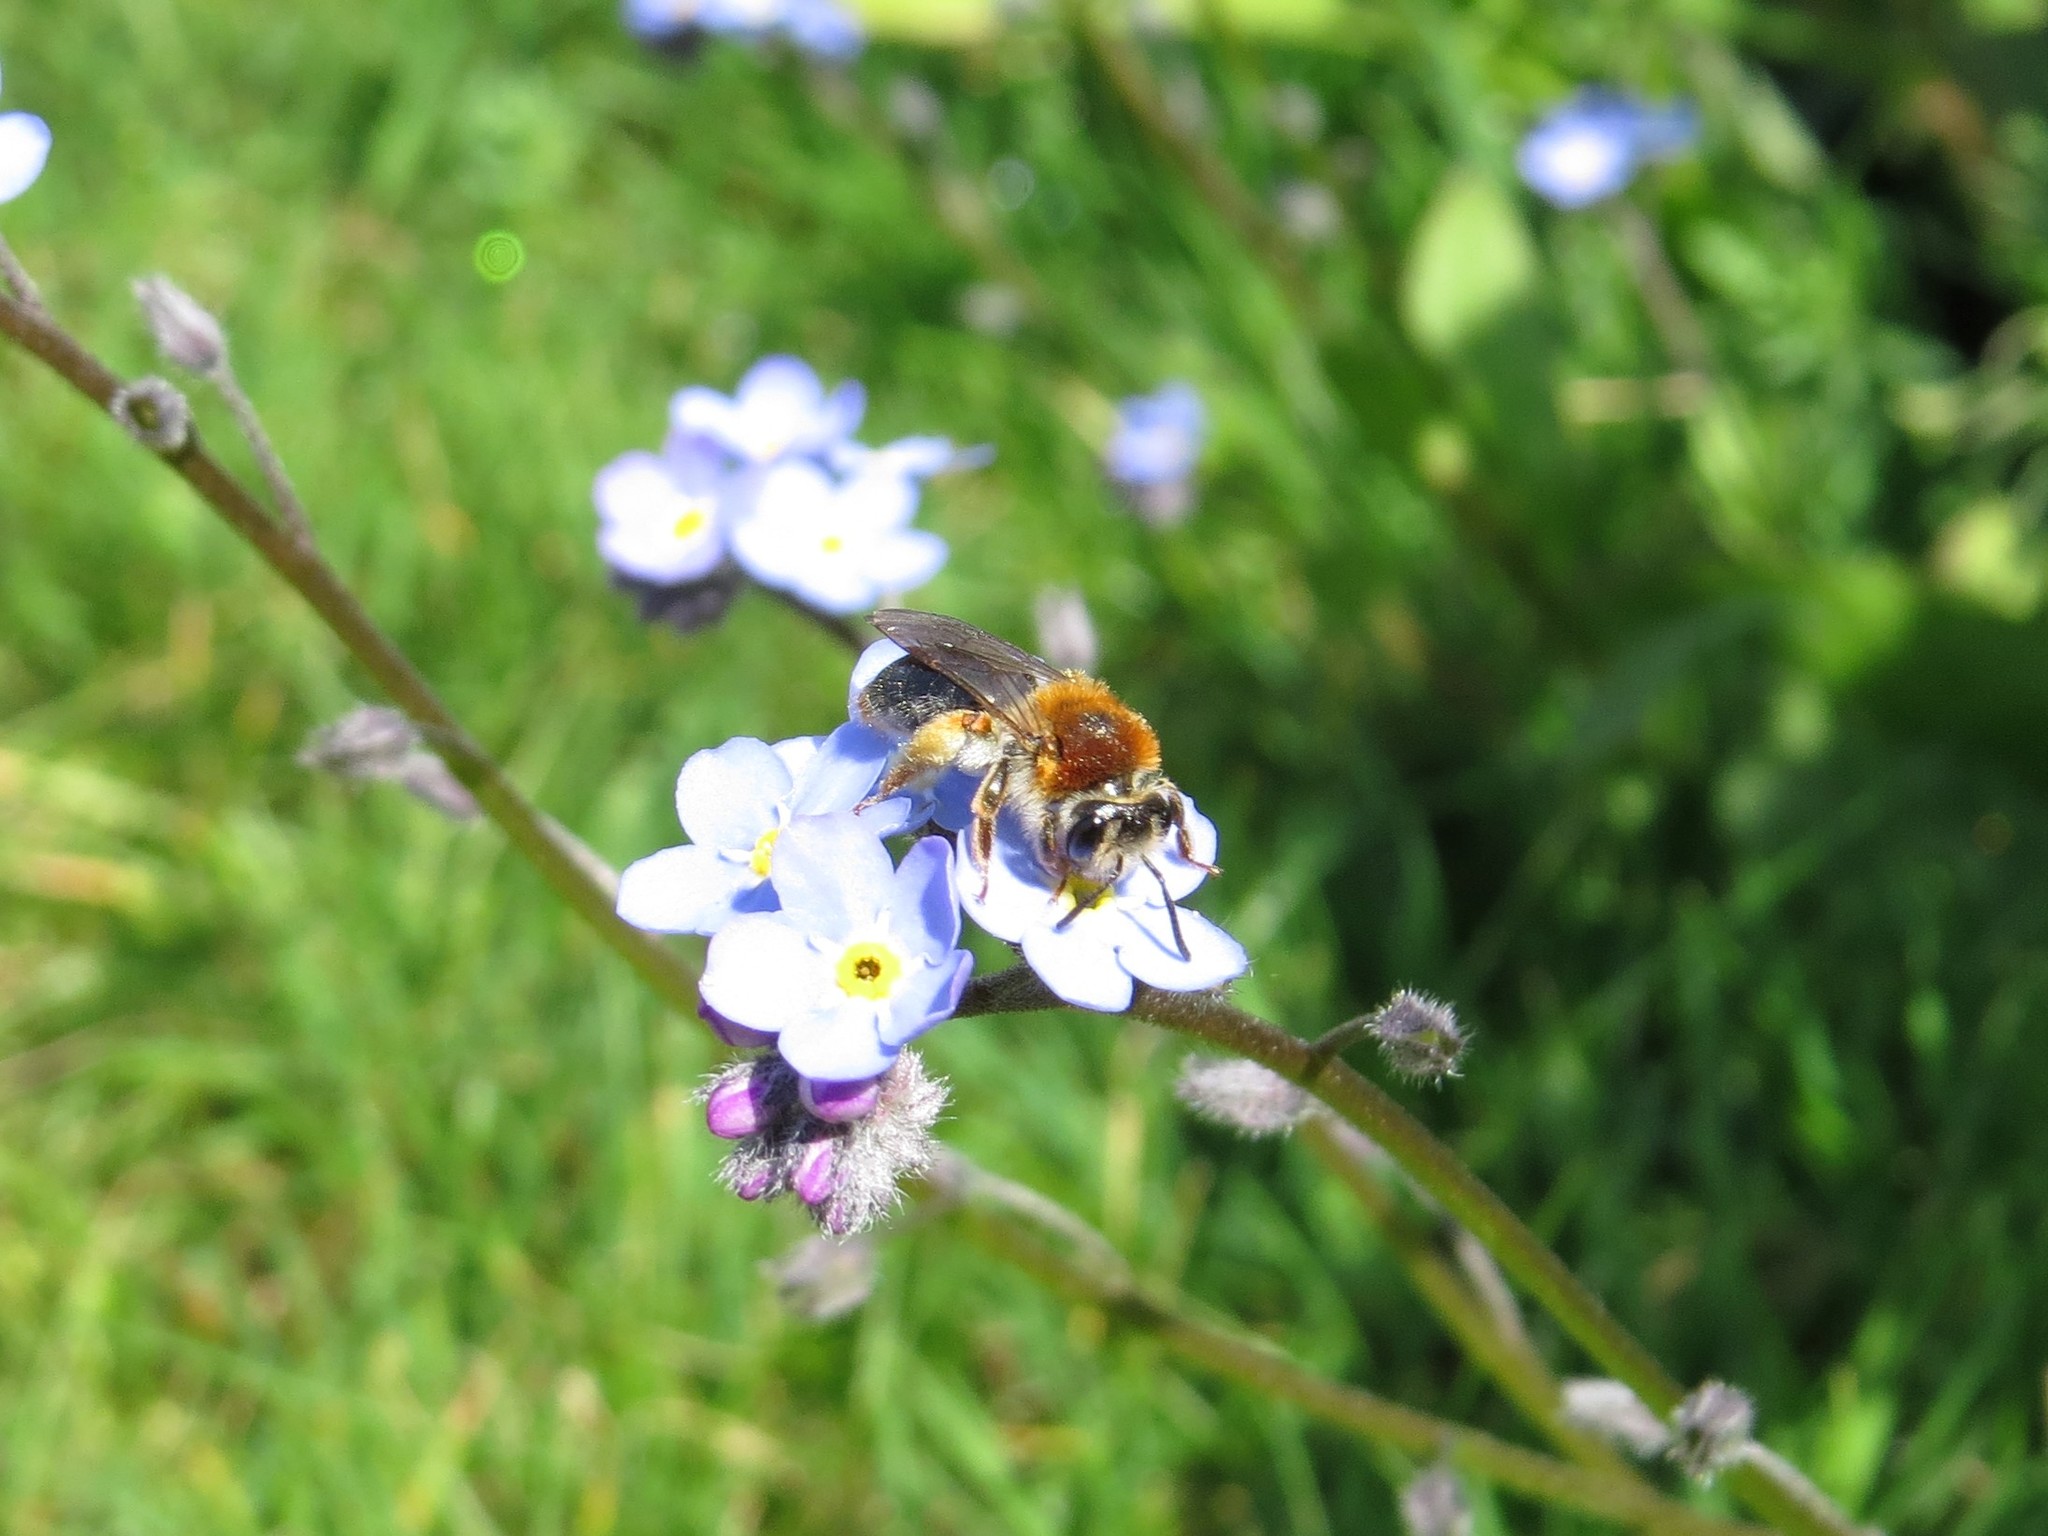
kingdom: Animalia
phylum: Arthropoda
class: Insecta
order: Hymenoptera
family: Andrenidae
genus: Andrena
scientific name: Andrena haemorrhoa
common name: Early mining bee
